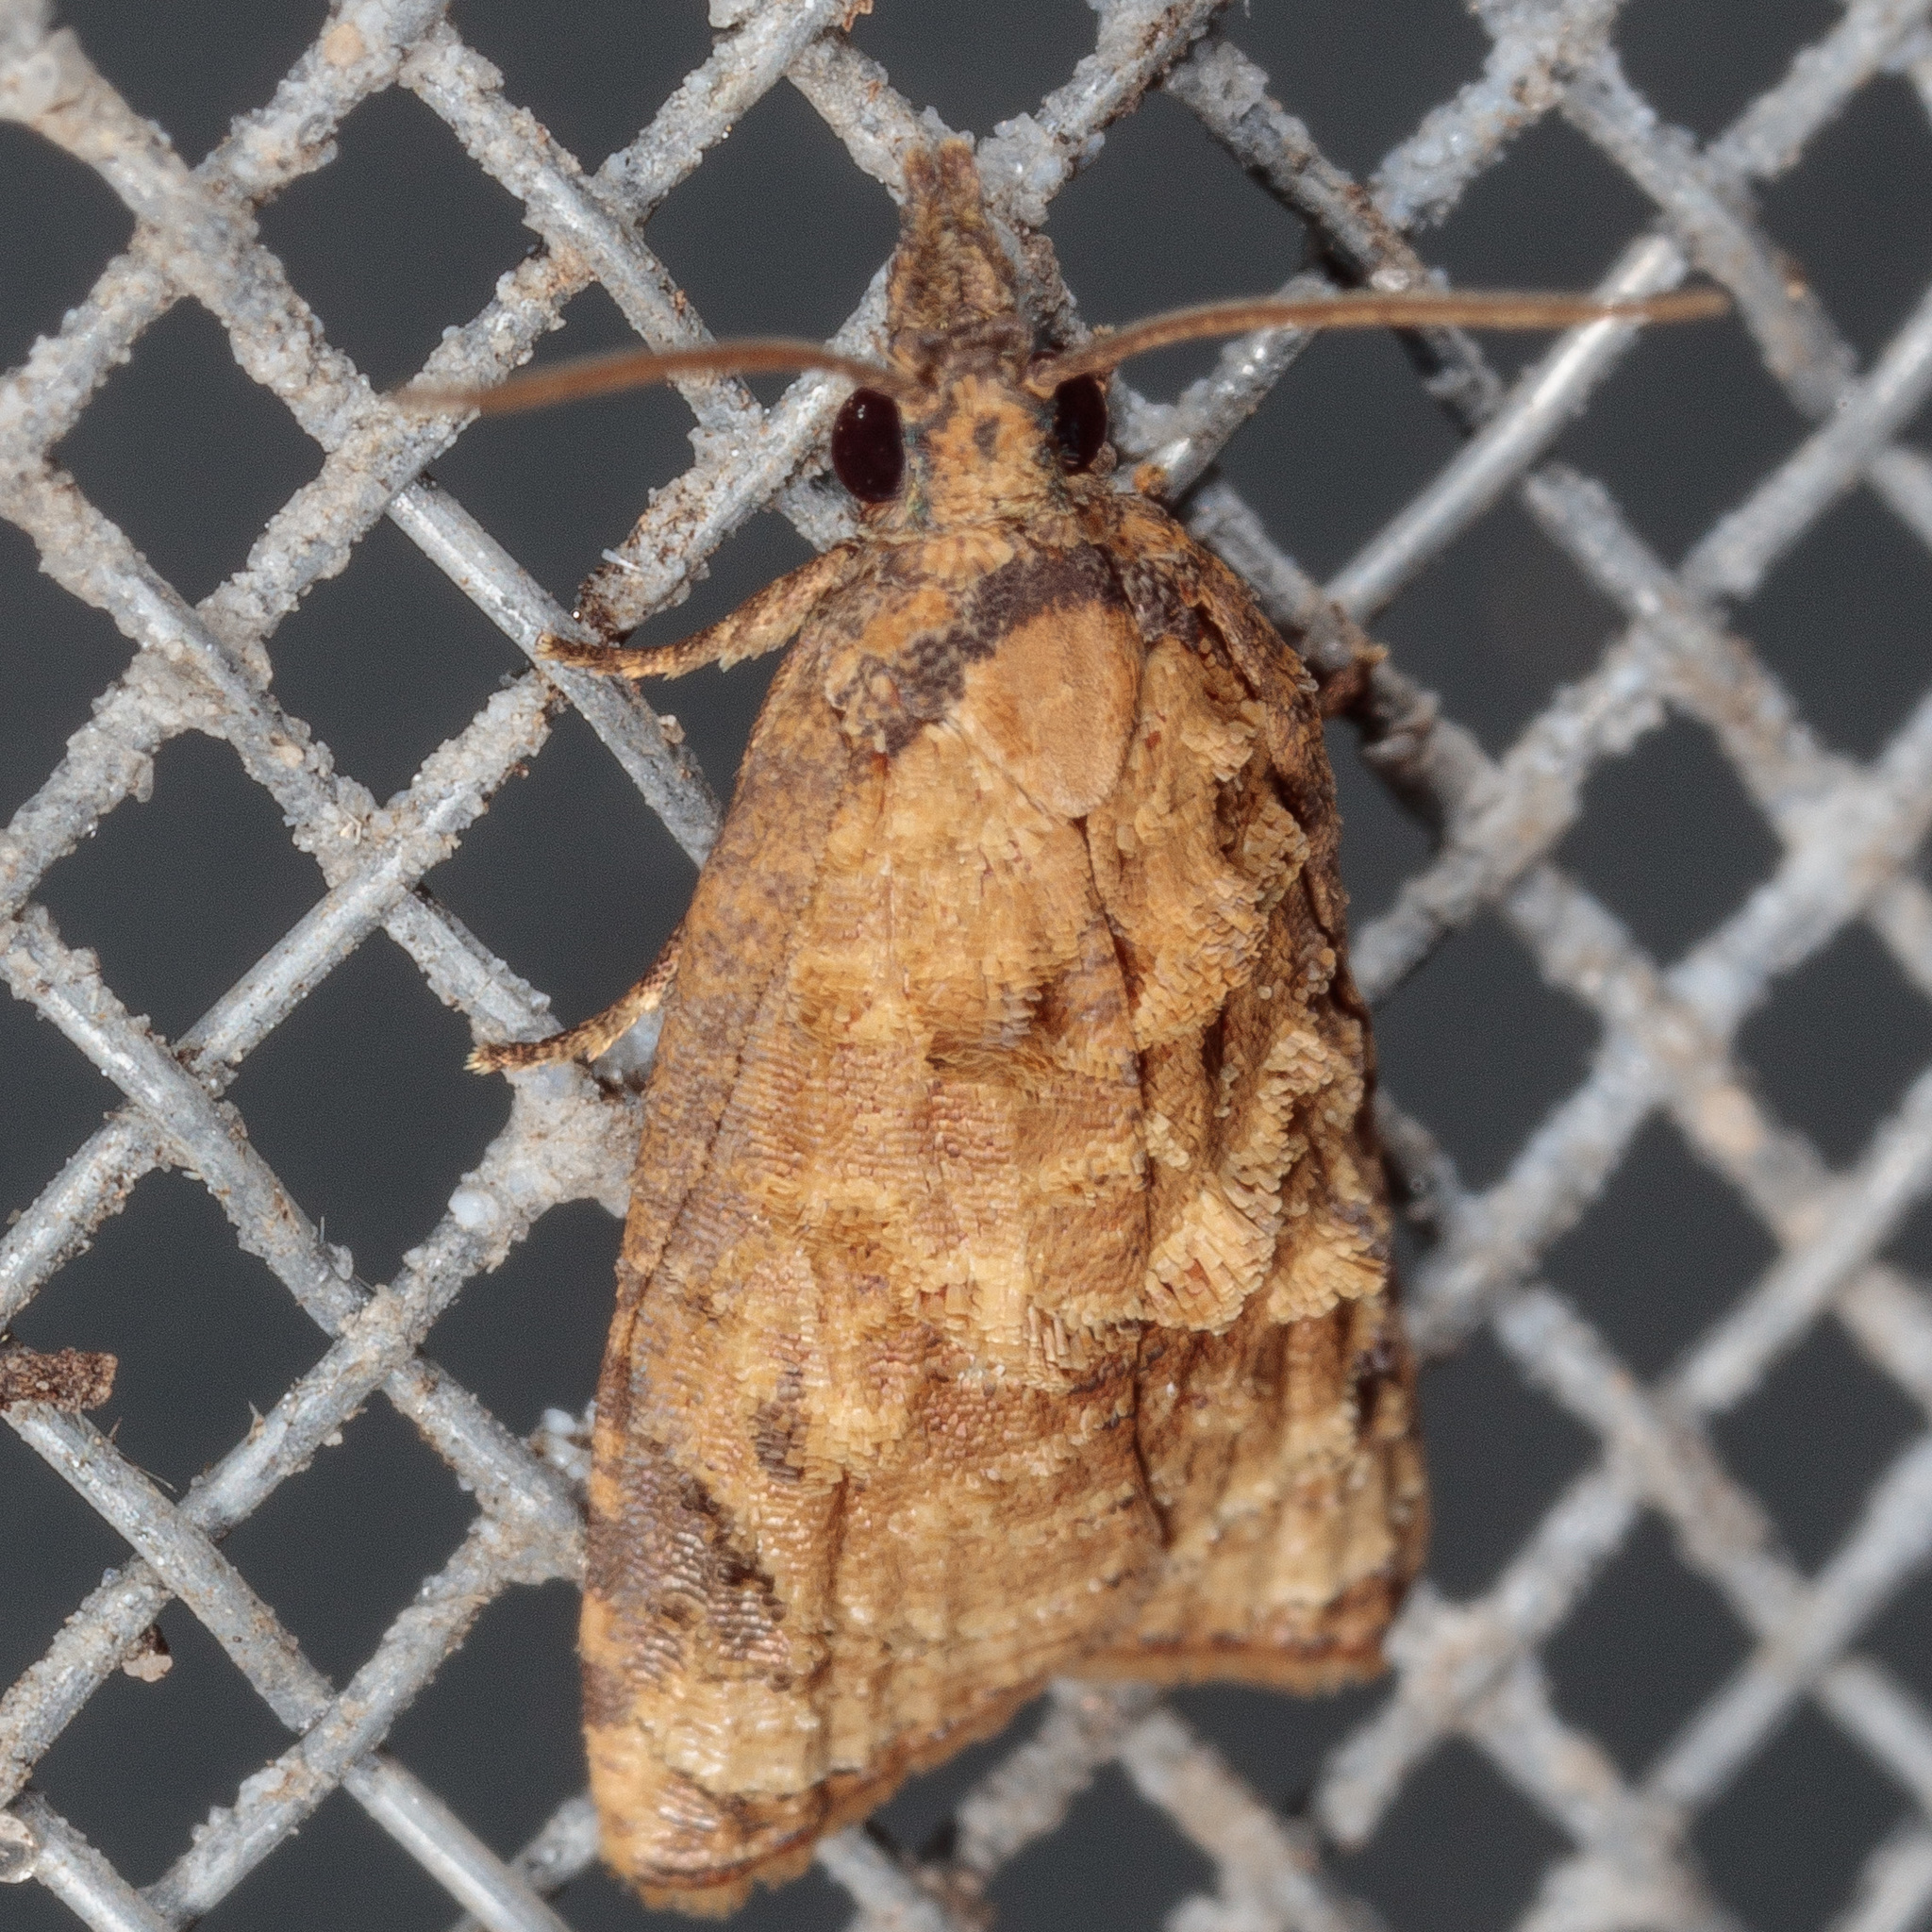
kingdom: Animalia
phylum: Arthropoda
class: Insecta
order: Lepidoptera
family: Tortricidae
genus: Platynota
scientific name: Platynota rostrana
